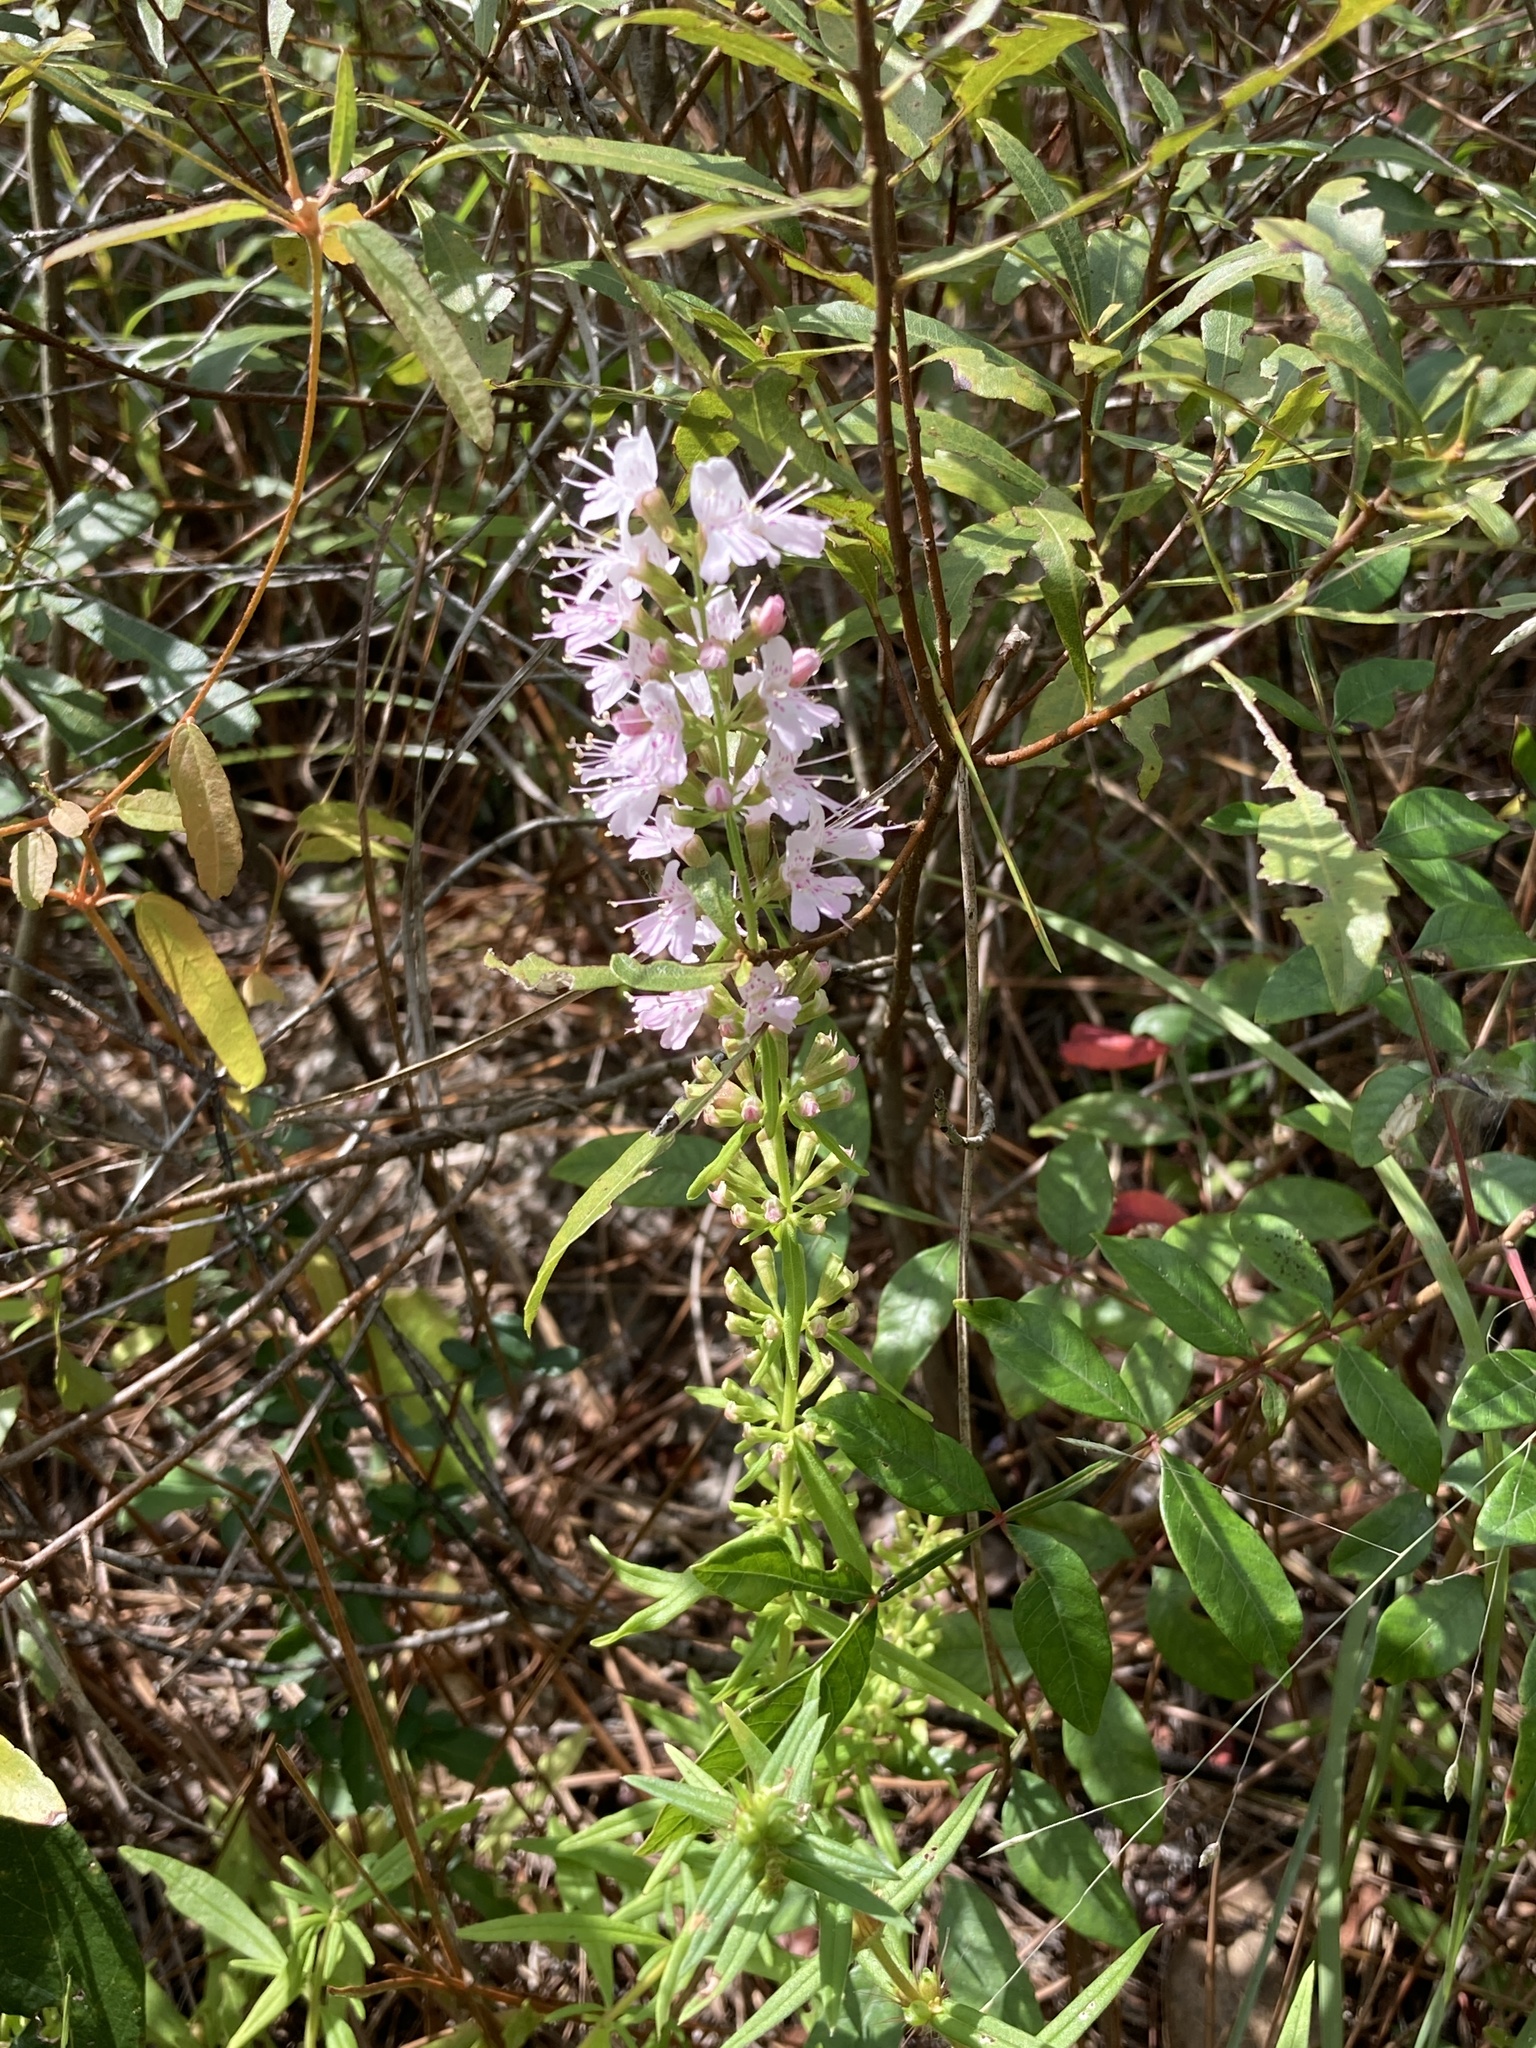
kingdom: Plantae
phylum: Tracheophyta
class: Magnoliopsida
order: Lamiales
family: Lamiaceae
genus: Dicerandra
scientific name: Dicerandra densiflora
